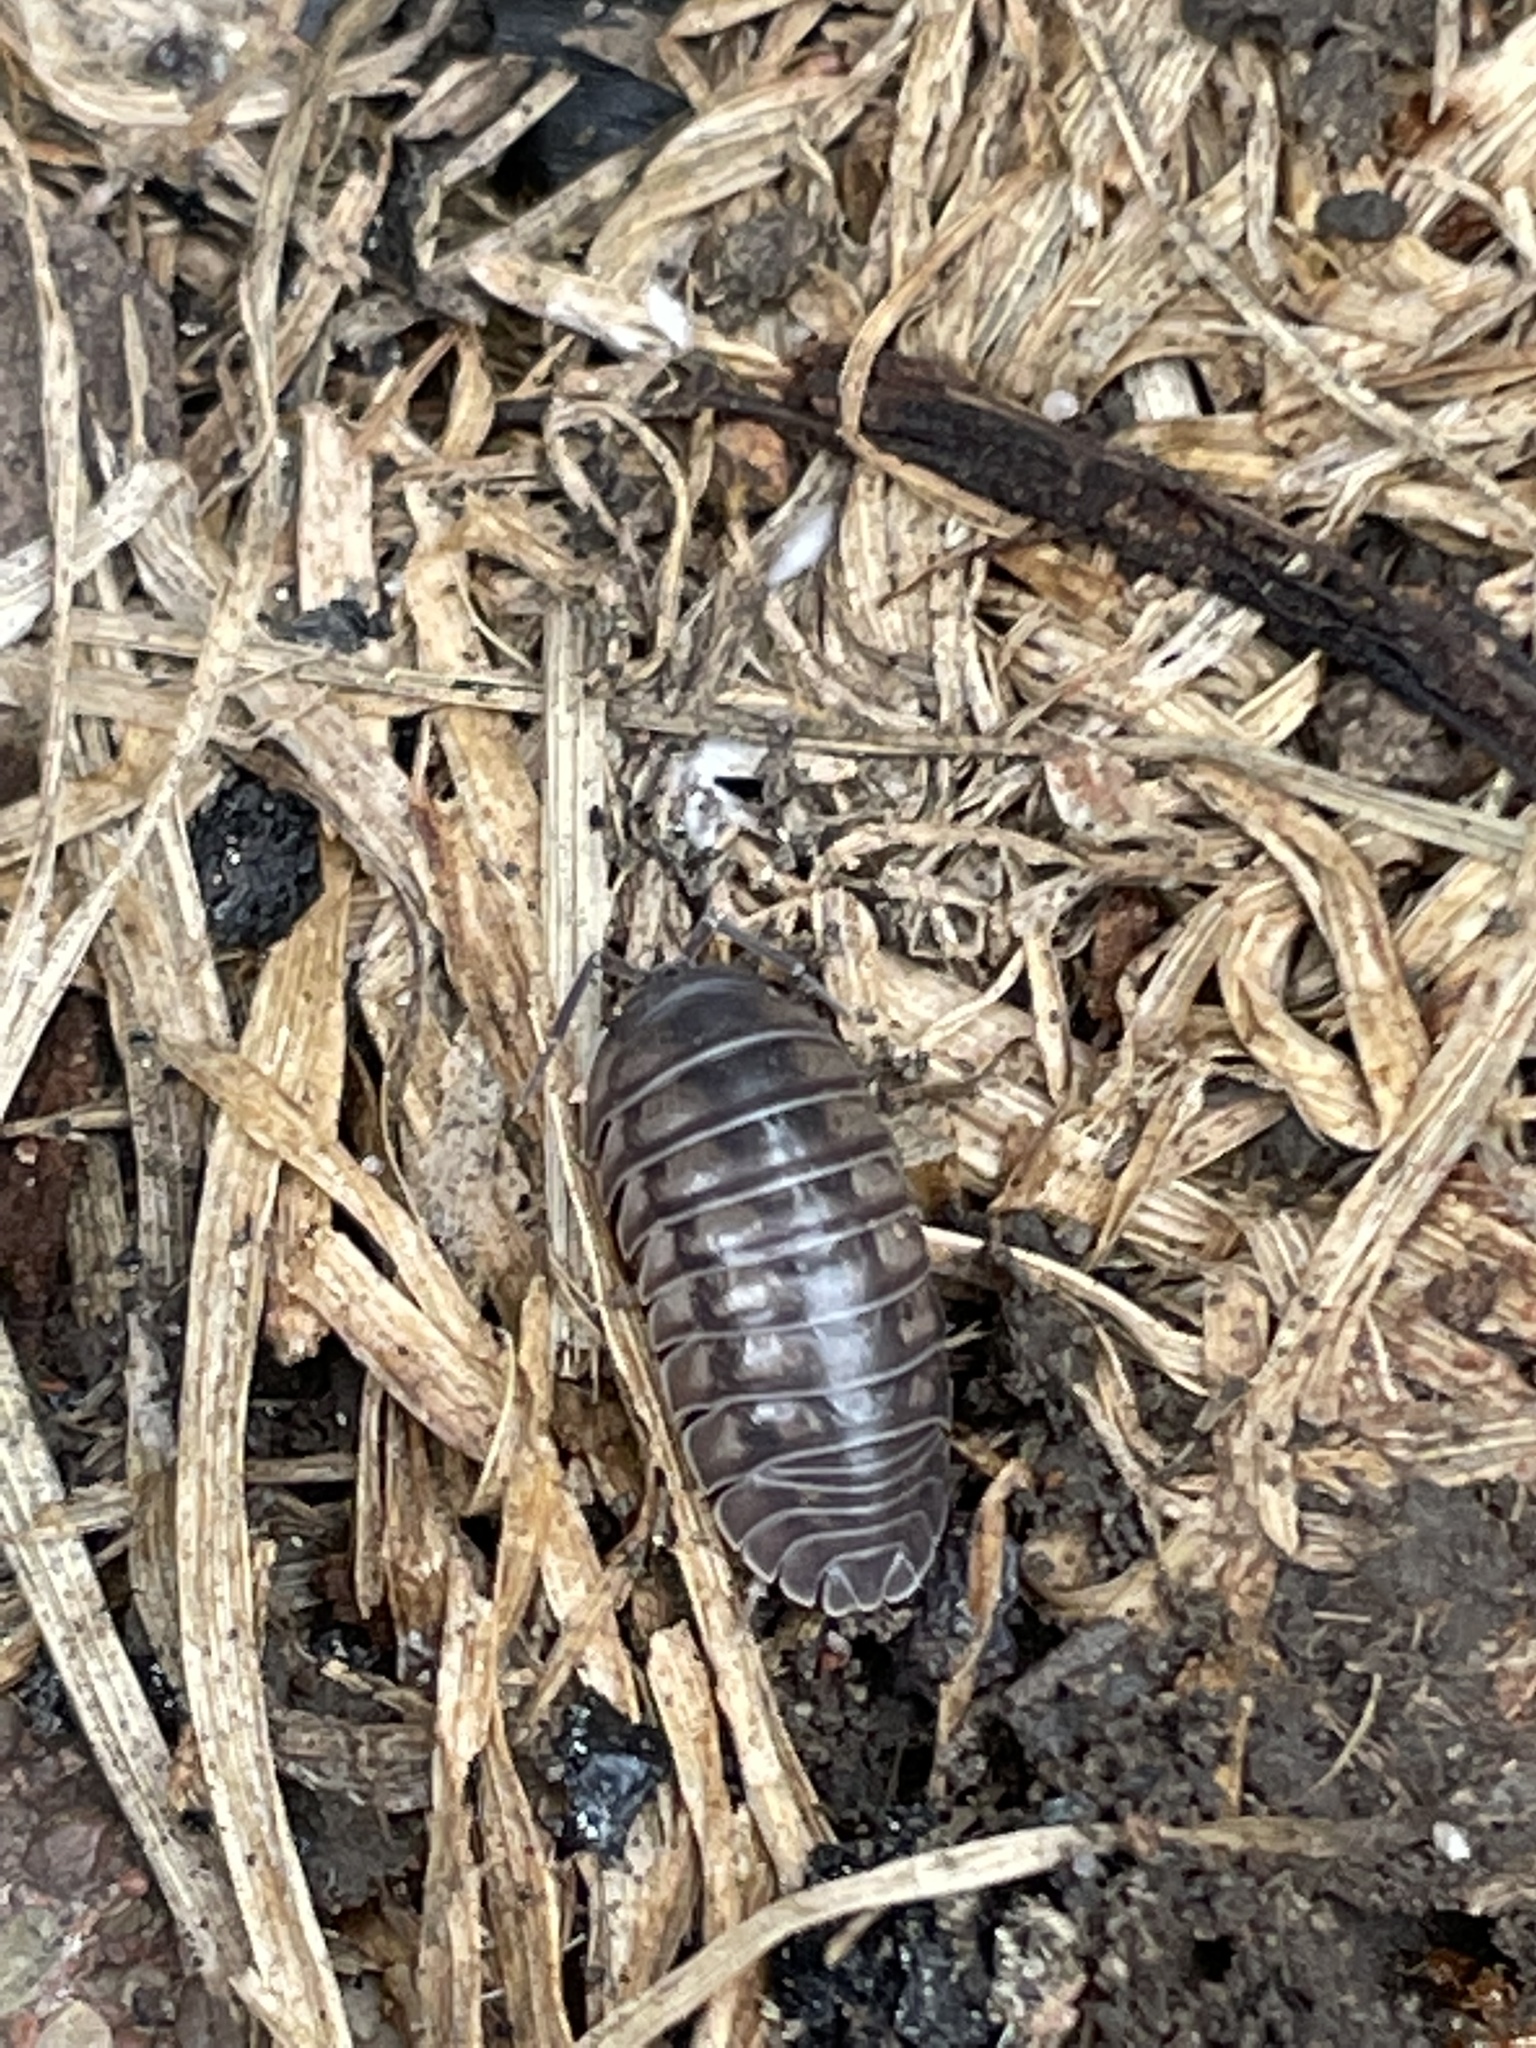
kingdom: Animalia
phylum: Arthropoda
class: Malacostraca
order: Isopoda
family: Armadillidiidae
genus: Armadillidium
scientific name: Armadillidium nasatum
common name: Isopod
